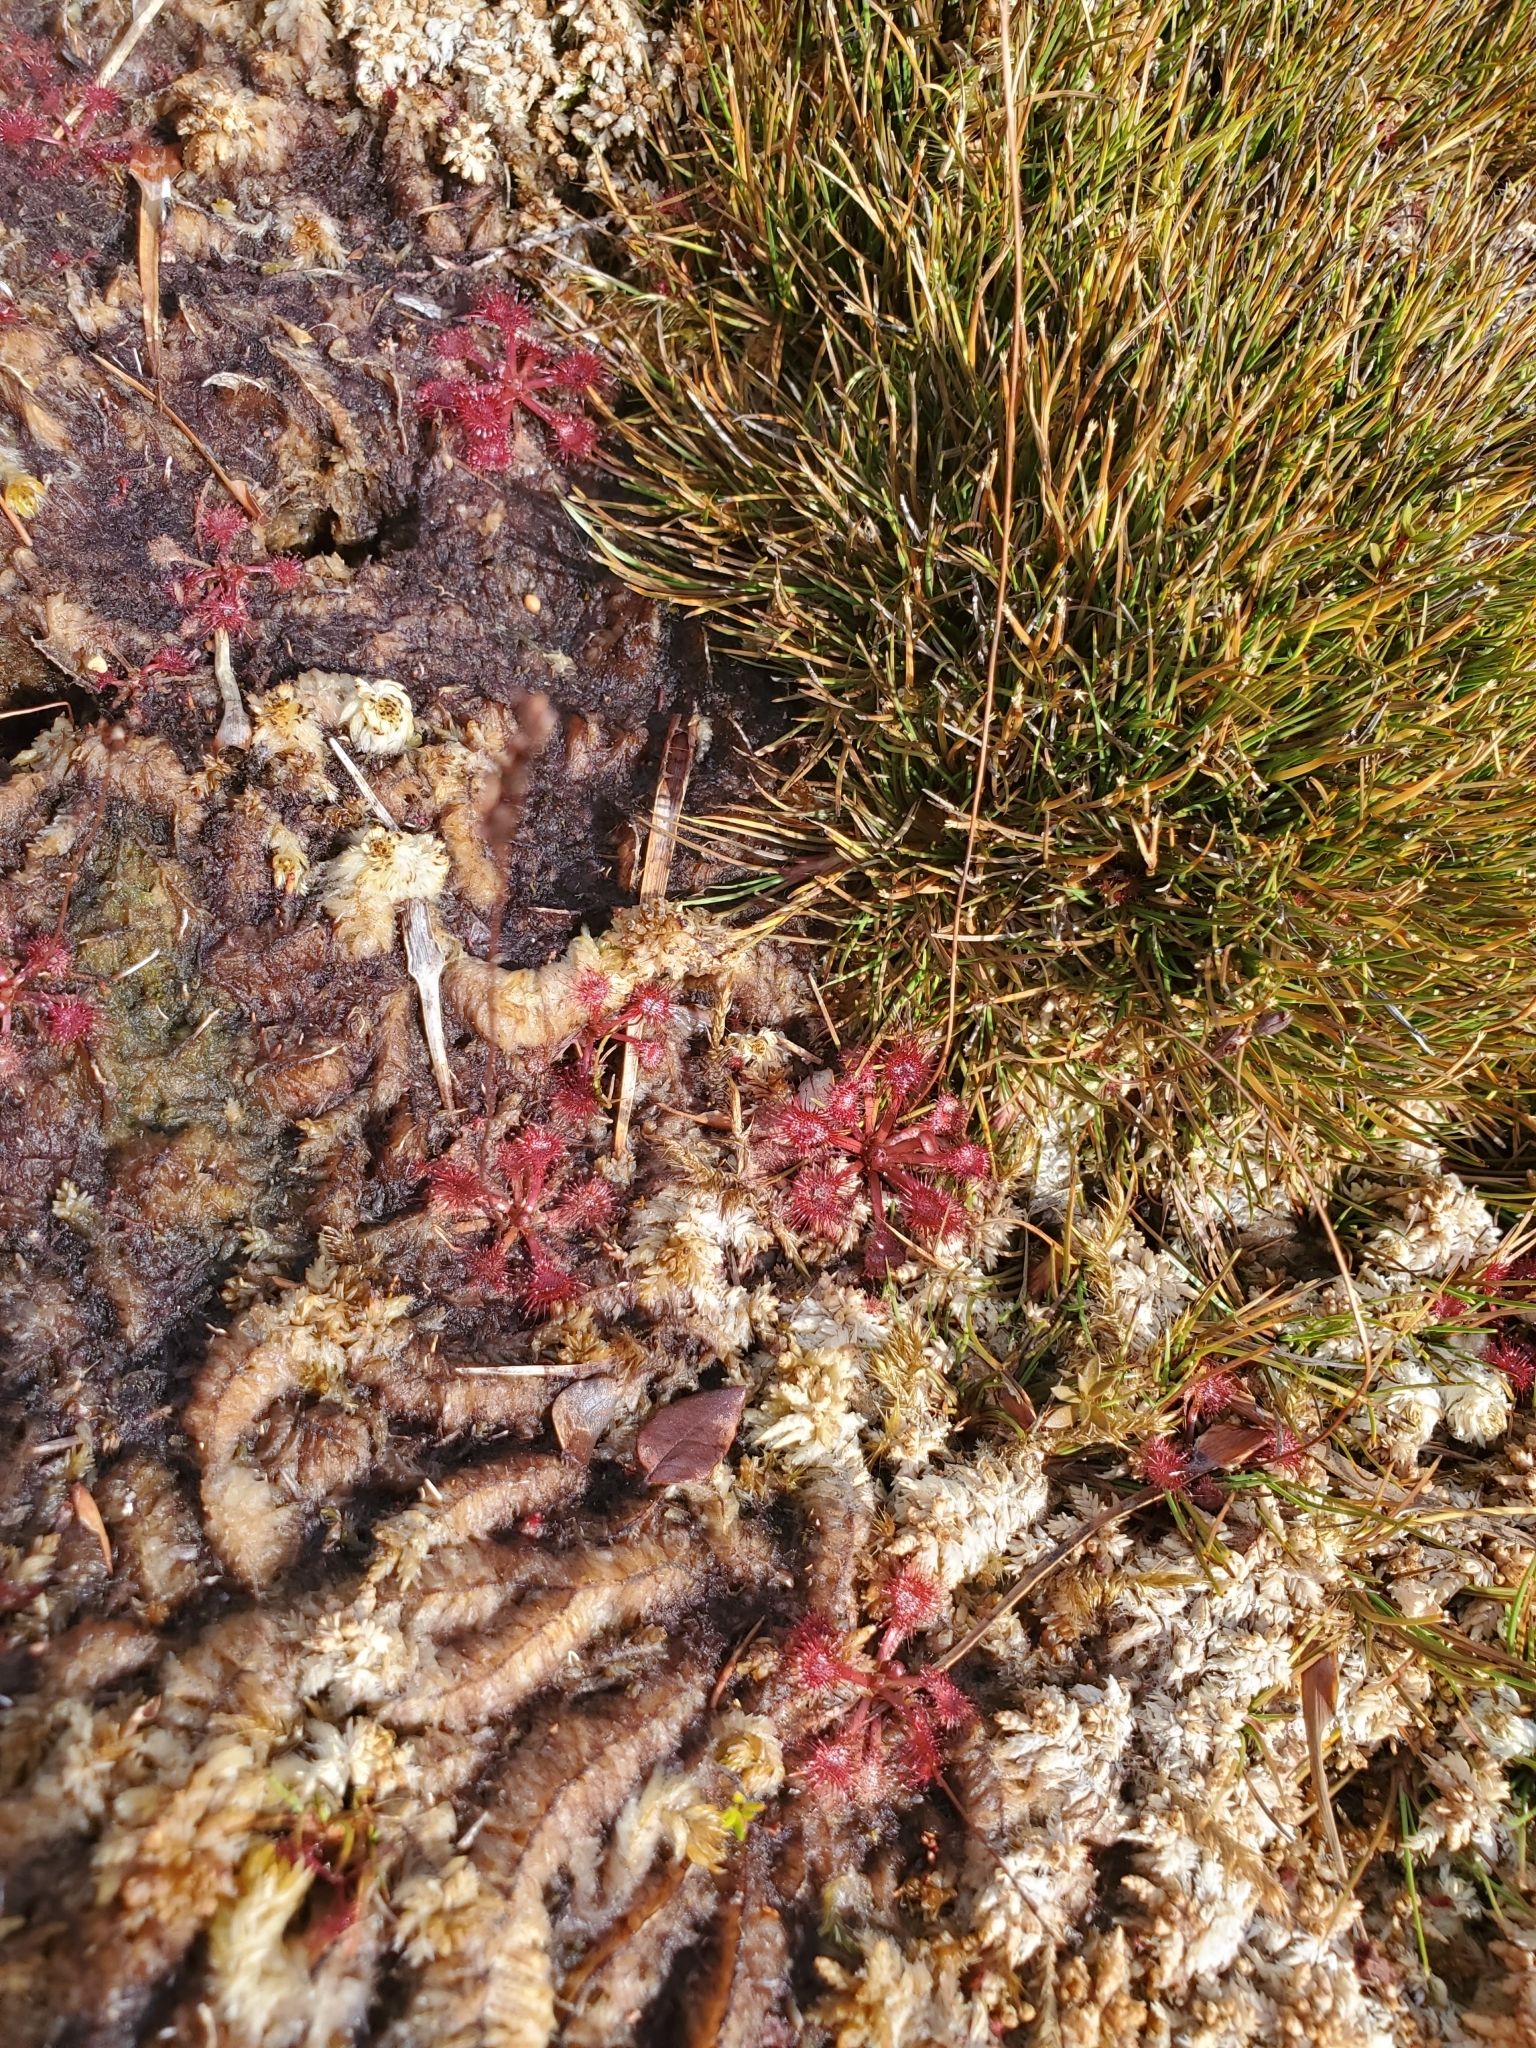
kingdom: Plantae
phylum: Tracheophyta
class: Magnoliopsida
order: Caryophyllales
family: Droseraceae
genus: Drosera
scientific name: Drosera spatulata
